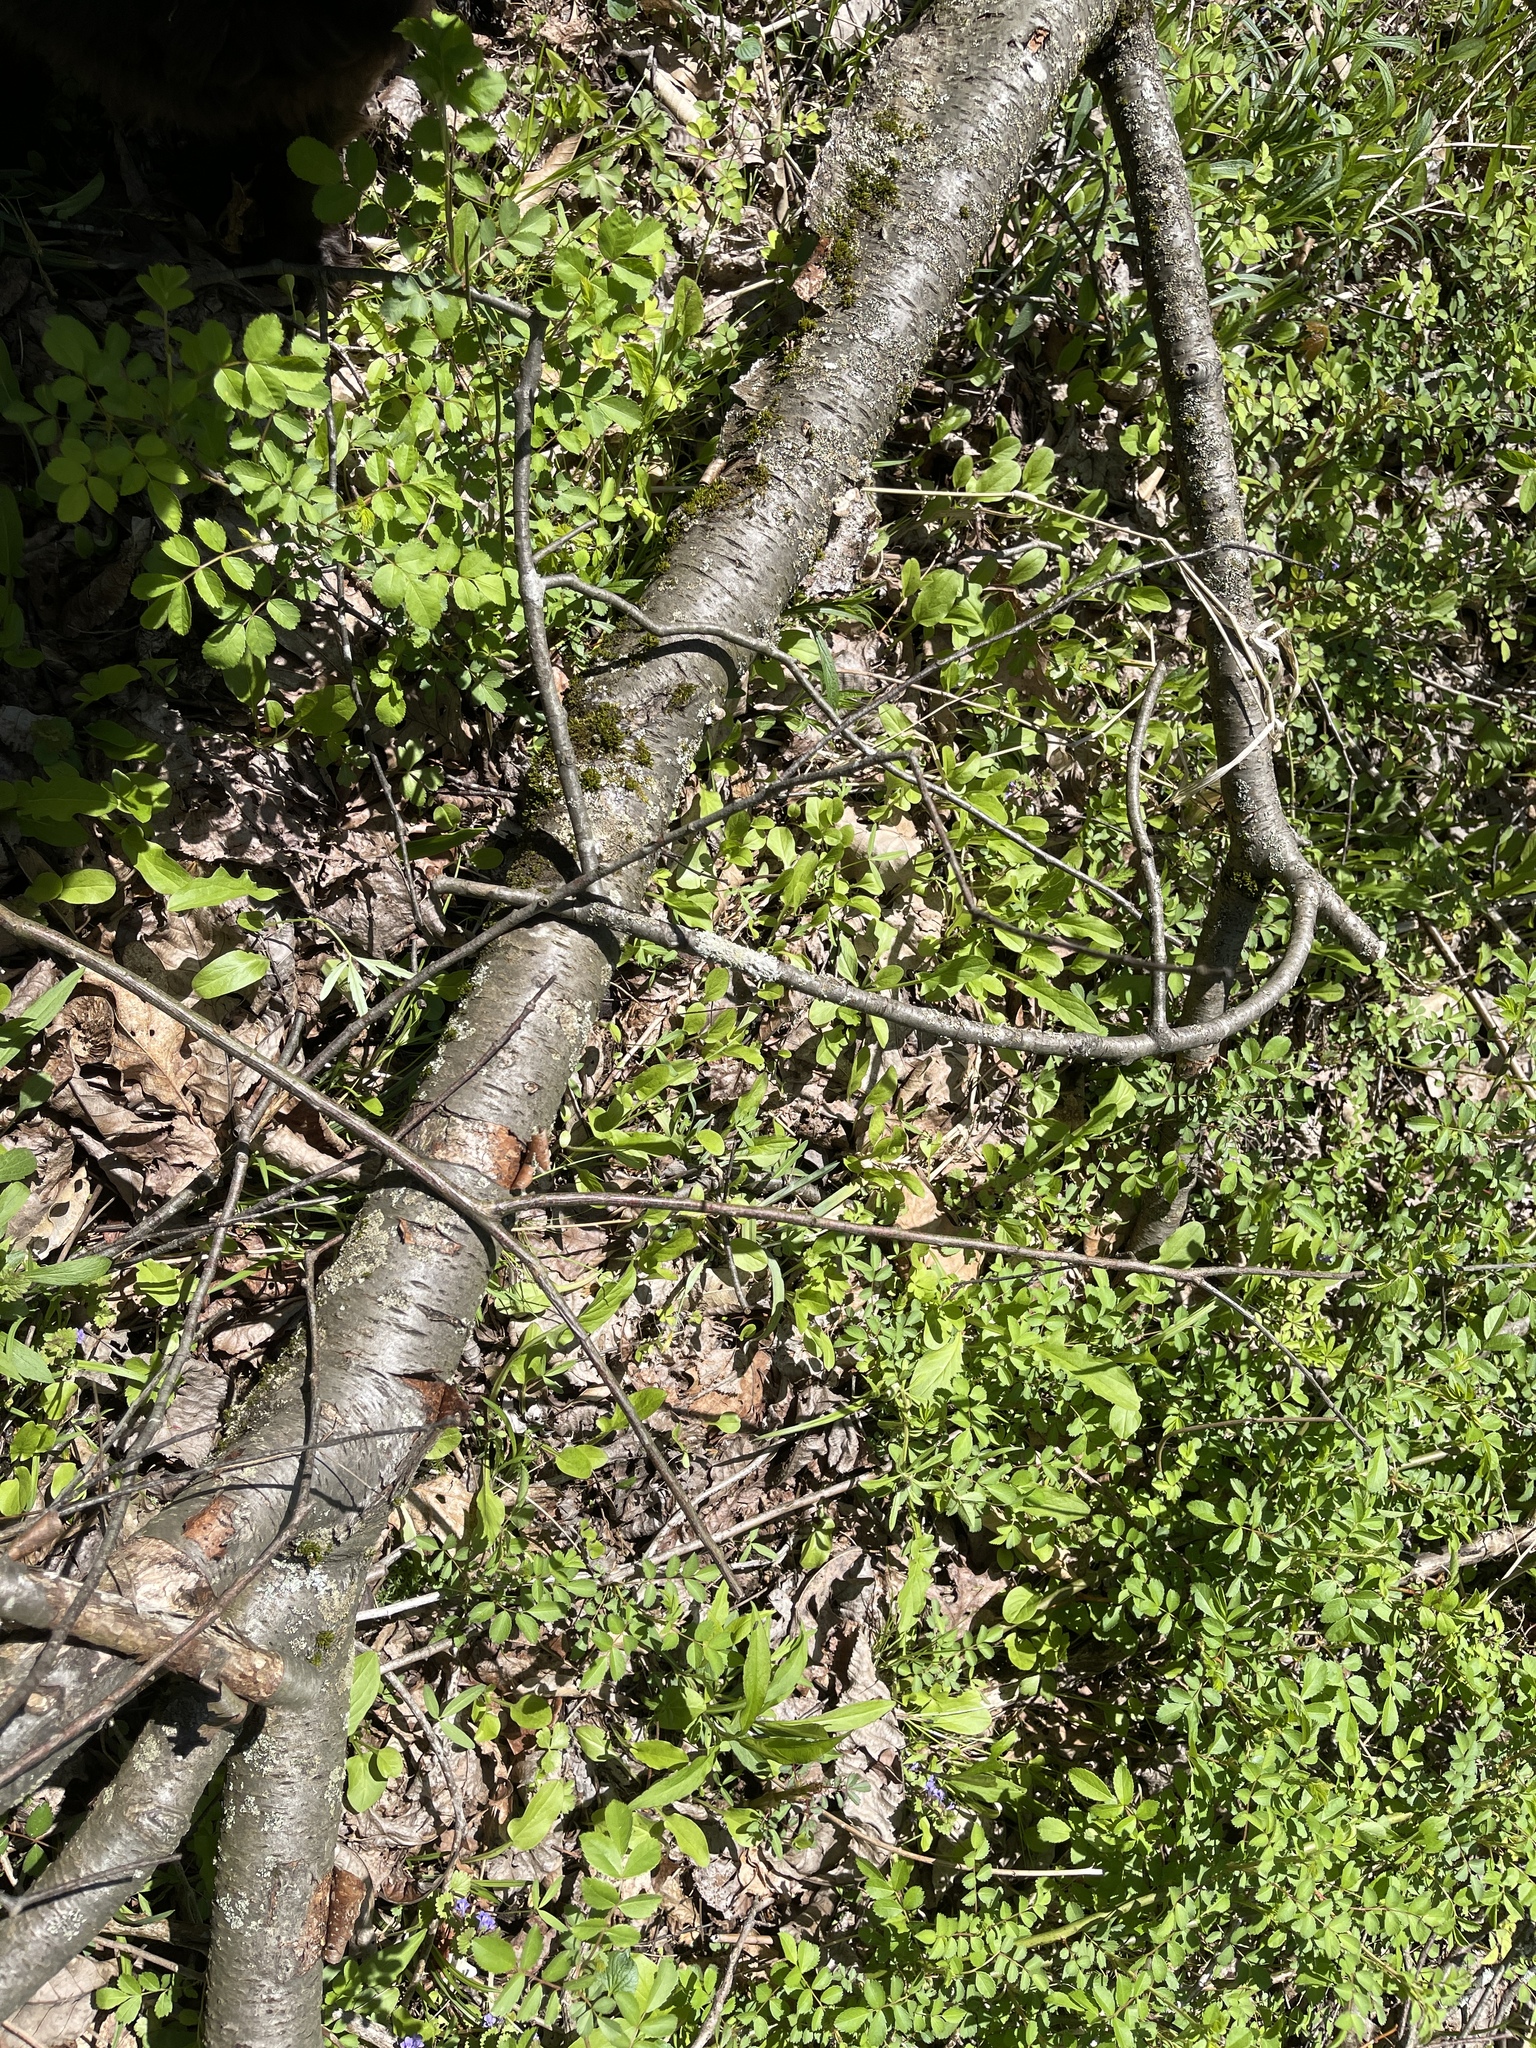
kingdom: Plantae
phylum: Tracheophyta
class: Magnoliopsida
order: Asterales
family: Asteraceae
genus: Nabalus
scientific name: Nabalus crepidineus
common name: Nodding rattlesnakeroot
